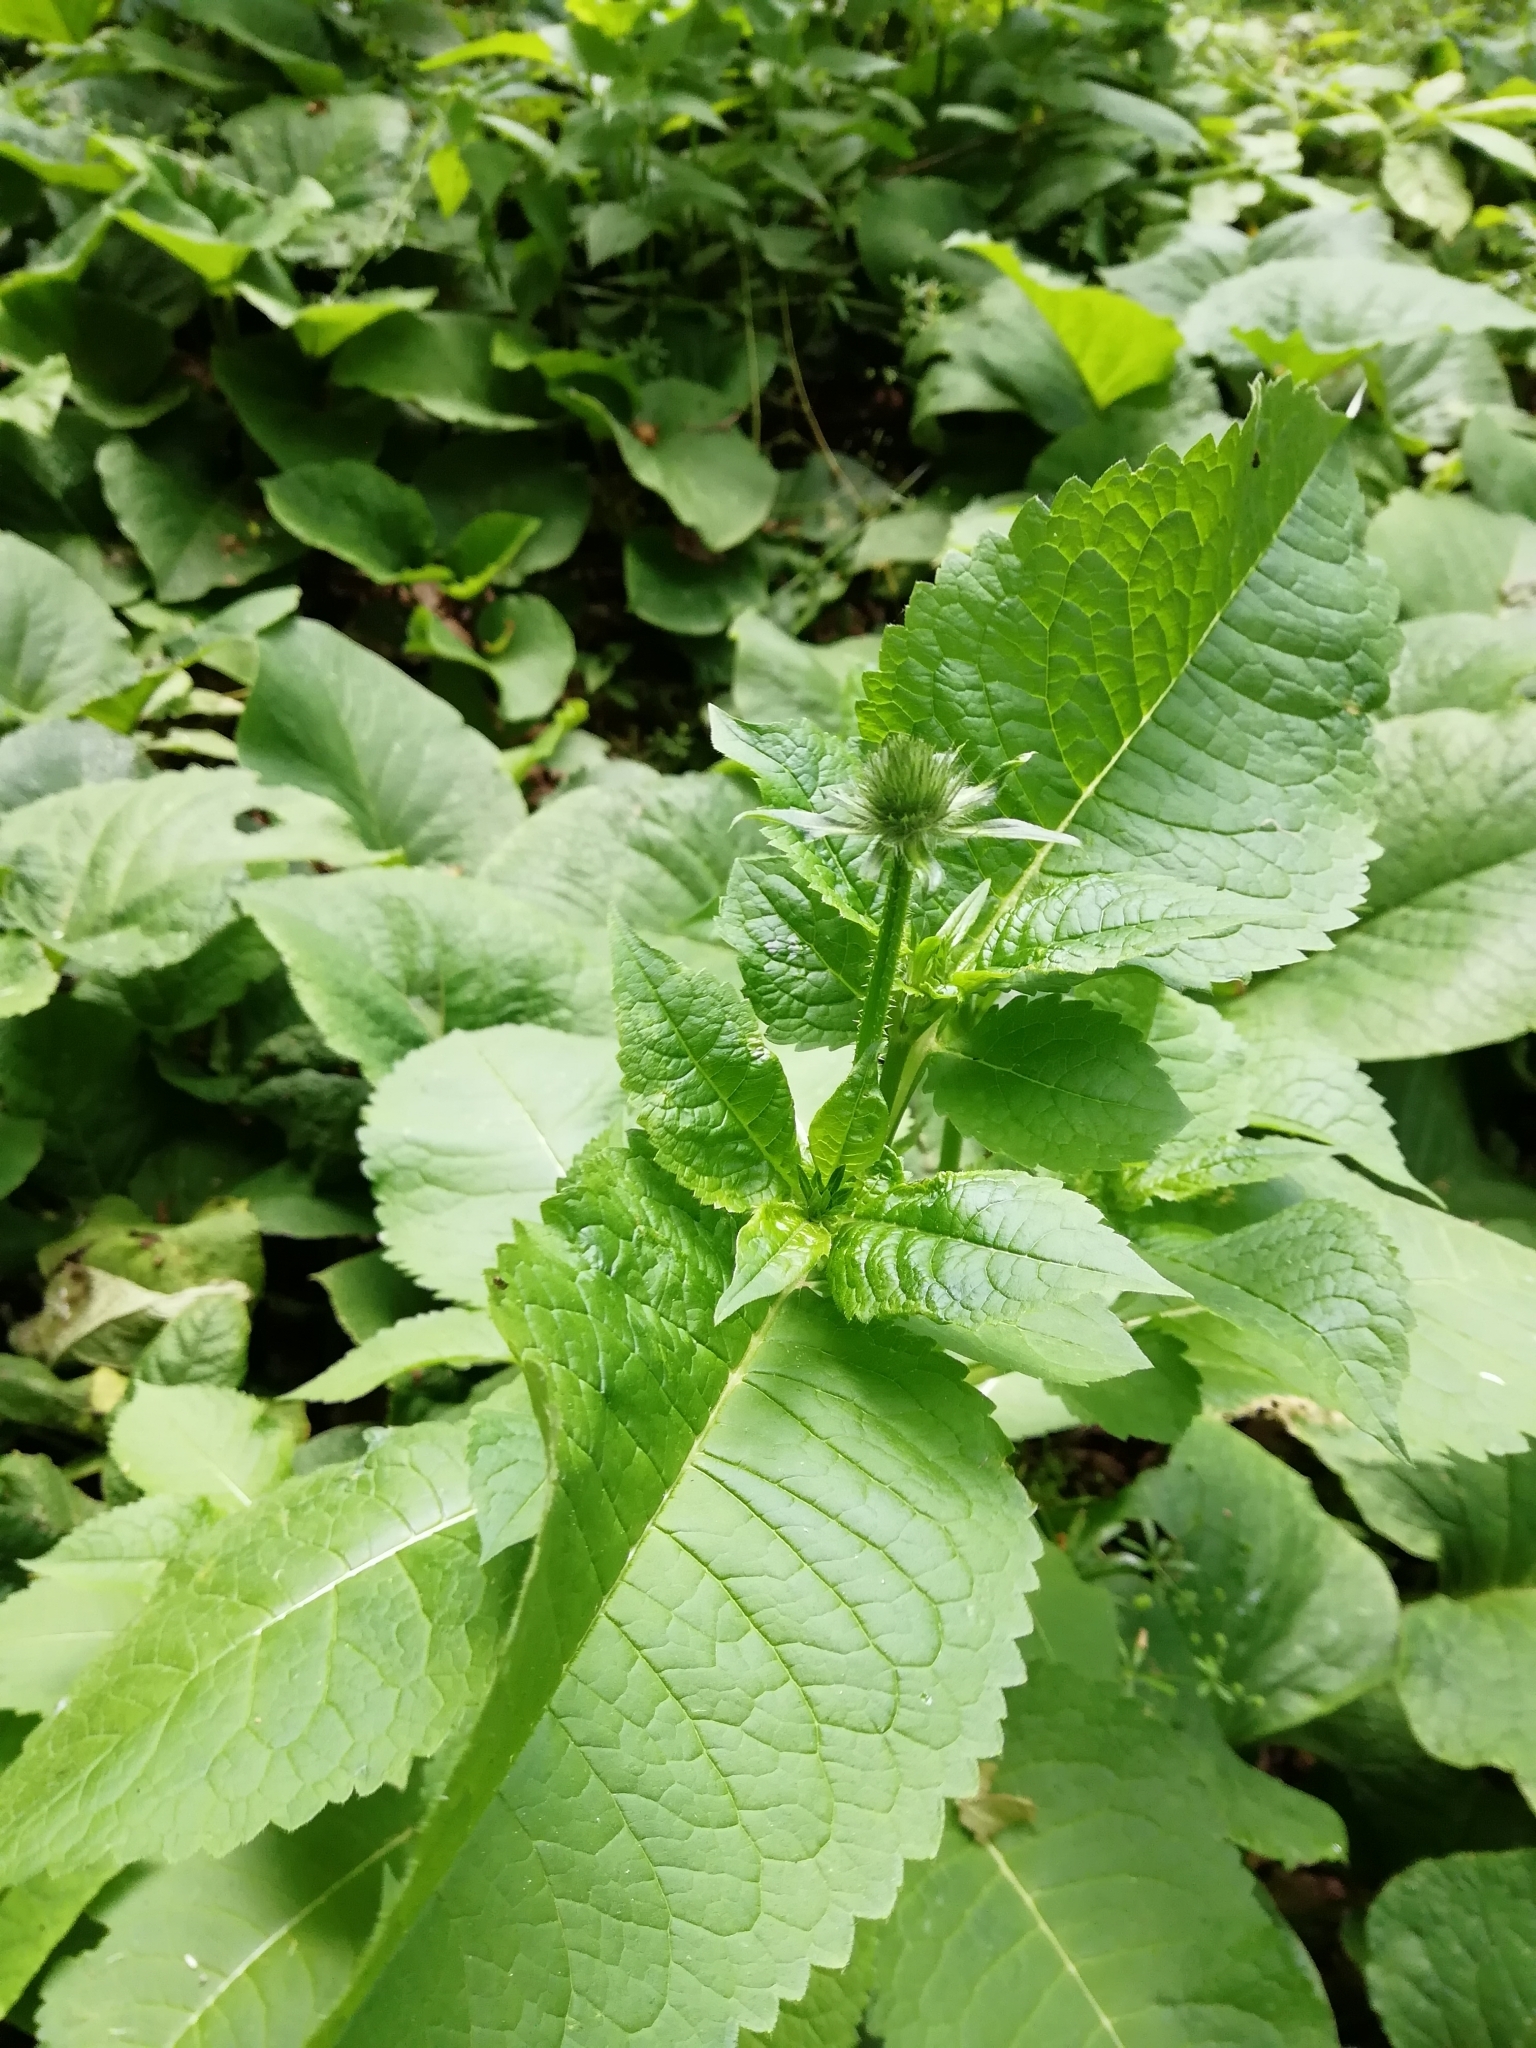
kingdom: Plantae
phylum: Tracheophyta
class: Magnoliopsida
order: Dipsacales
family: Caprifoliaceae
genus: Dipsacus
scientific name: Dipsacus pilosus
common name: Small teasel
